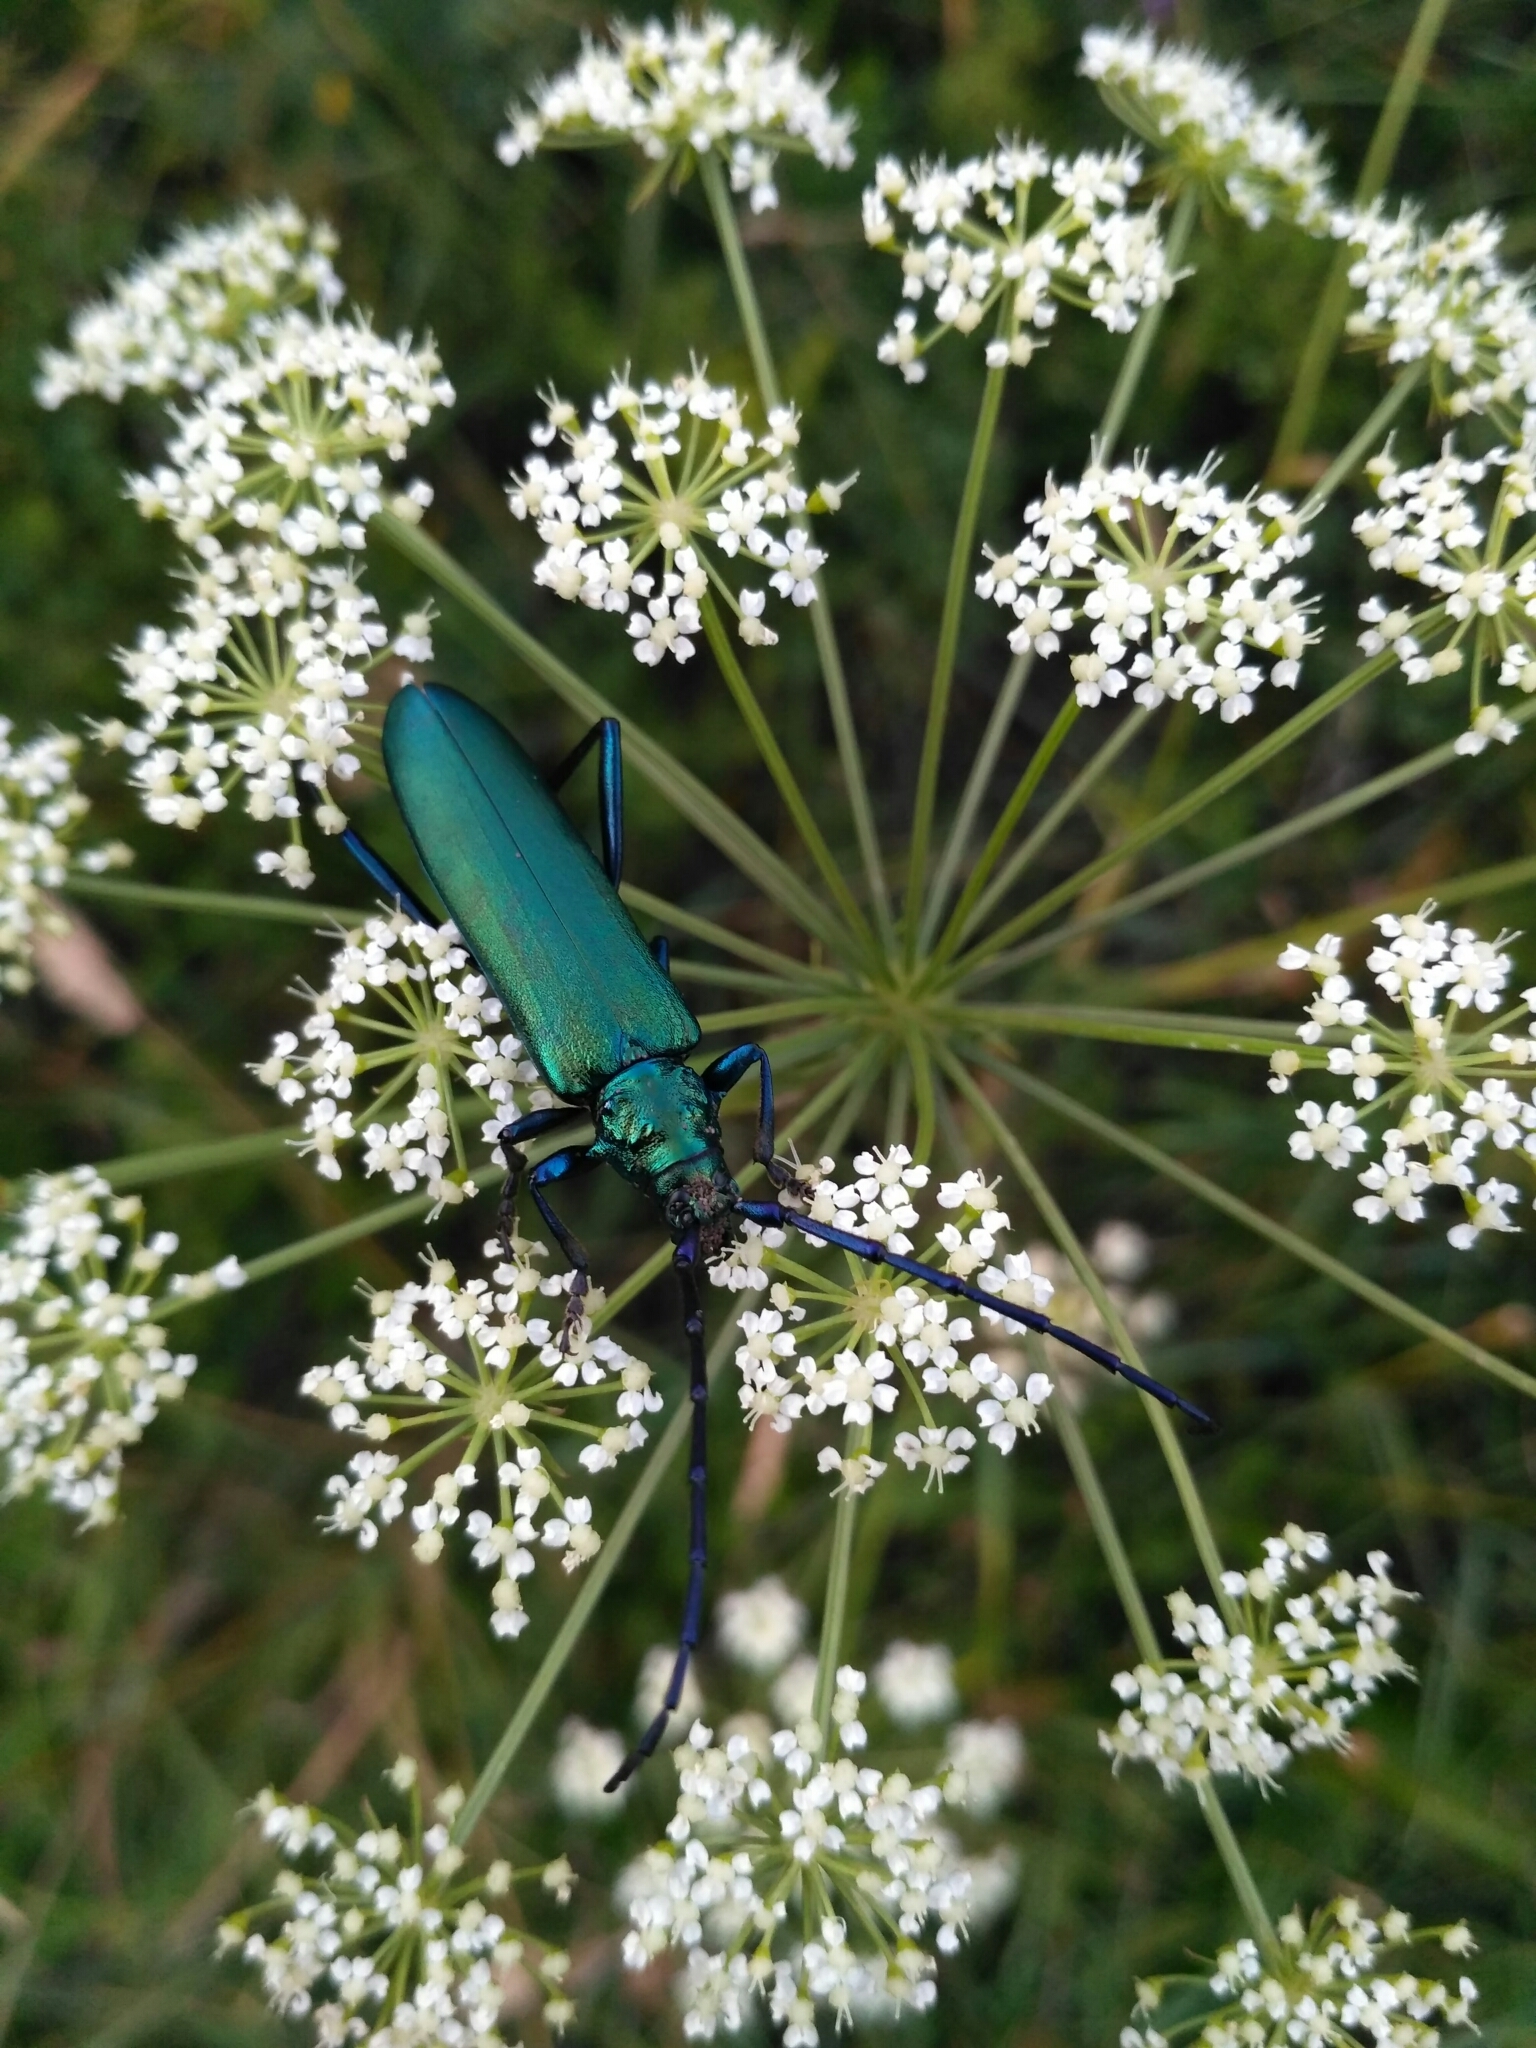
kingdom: Animalia
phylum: Arthropoda
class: Insecta
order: Coleoptera
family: Cerambycidae
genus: Aromia
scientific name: Aromia moschata
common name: Musk beetle
